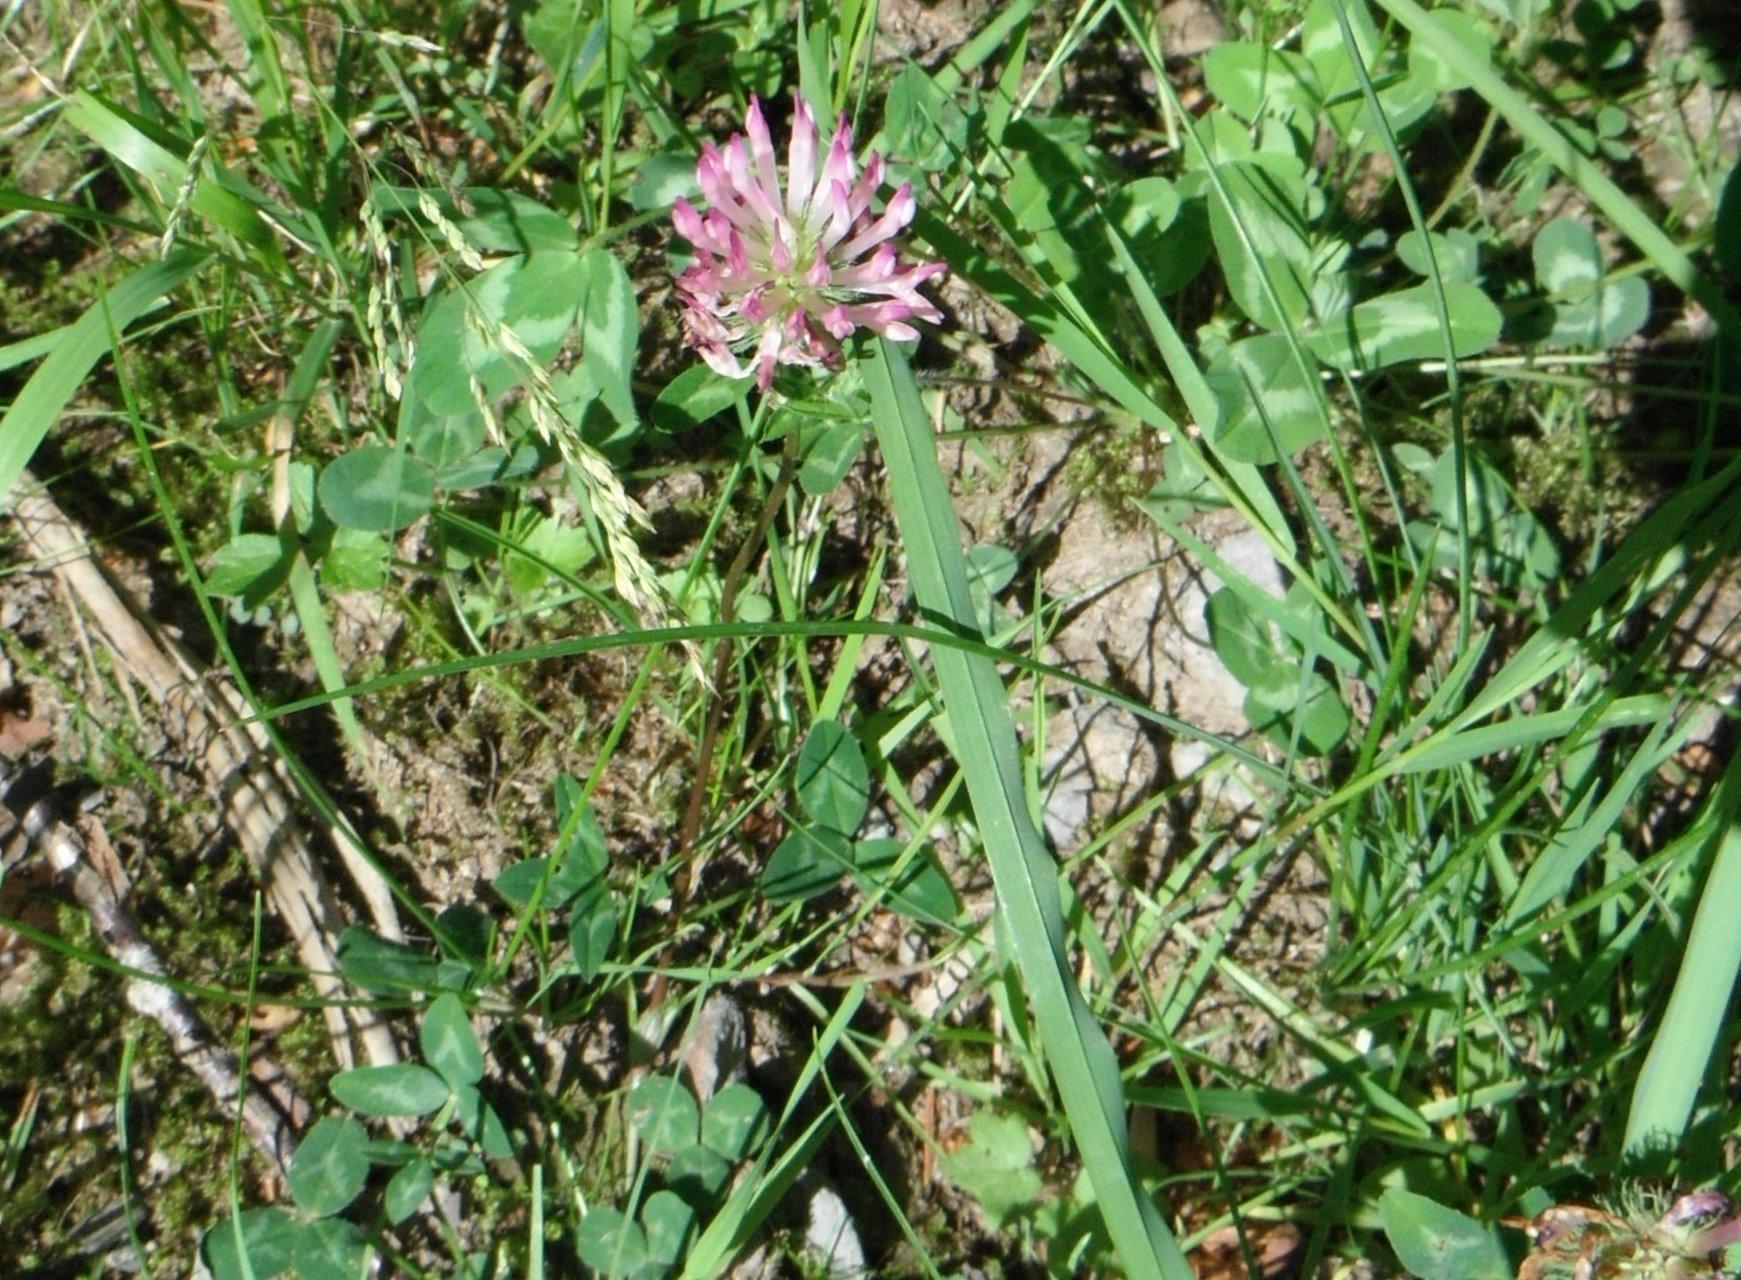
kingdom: Plantae
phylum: Tracheophyta
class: Magnoliopsida
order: Fabales
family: Fabaceae
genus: Trifolium
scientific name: Trifolium pratense
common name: Red clover
